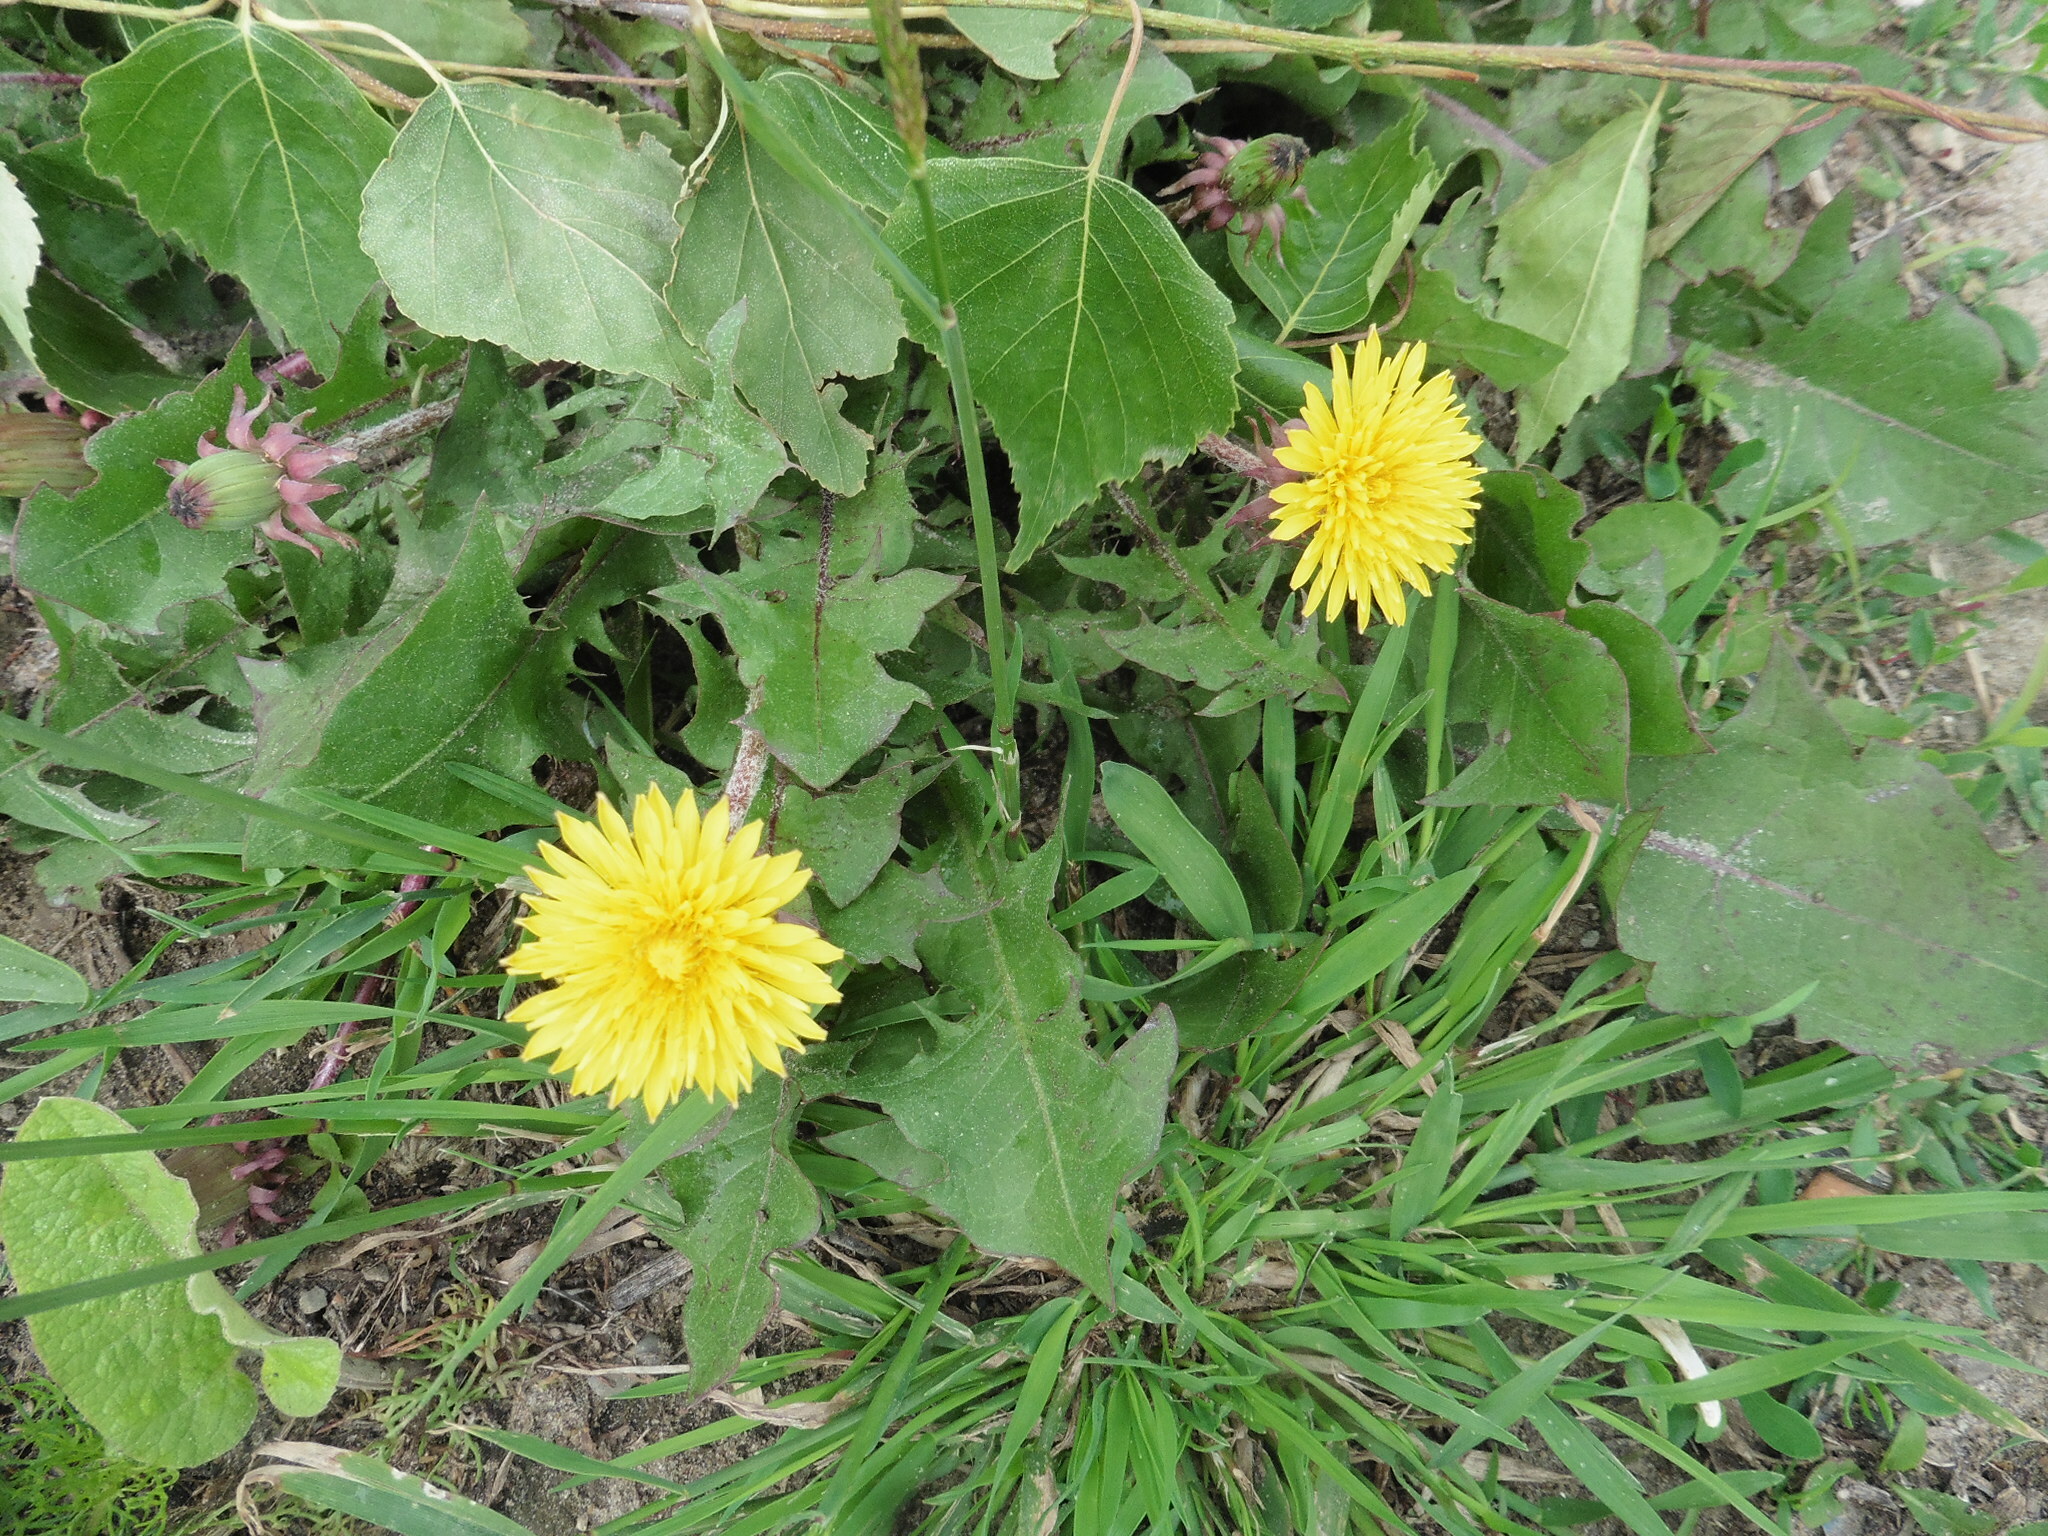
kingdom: Plantae
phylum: Tracheophyta
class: Magnoliopsida
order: Asterales
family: Asteraceae
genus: Taraxacum
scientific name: Taraxacum officinale
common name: Common dandelion
